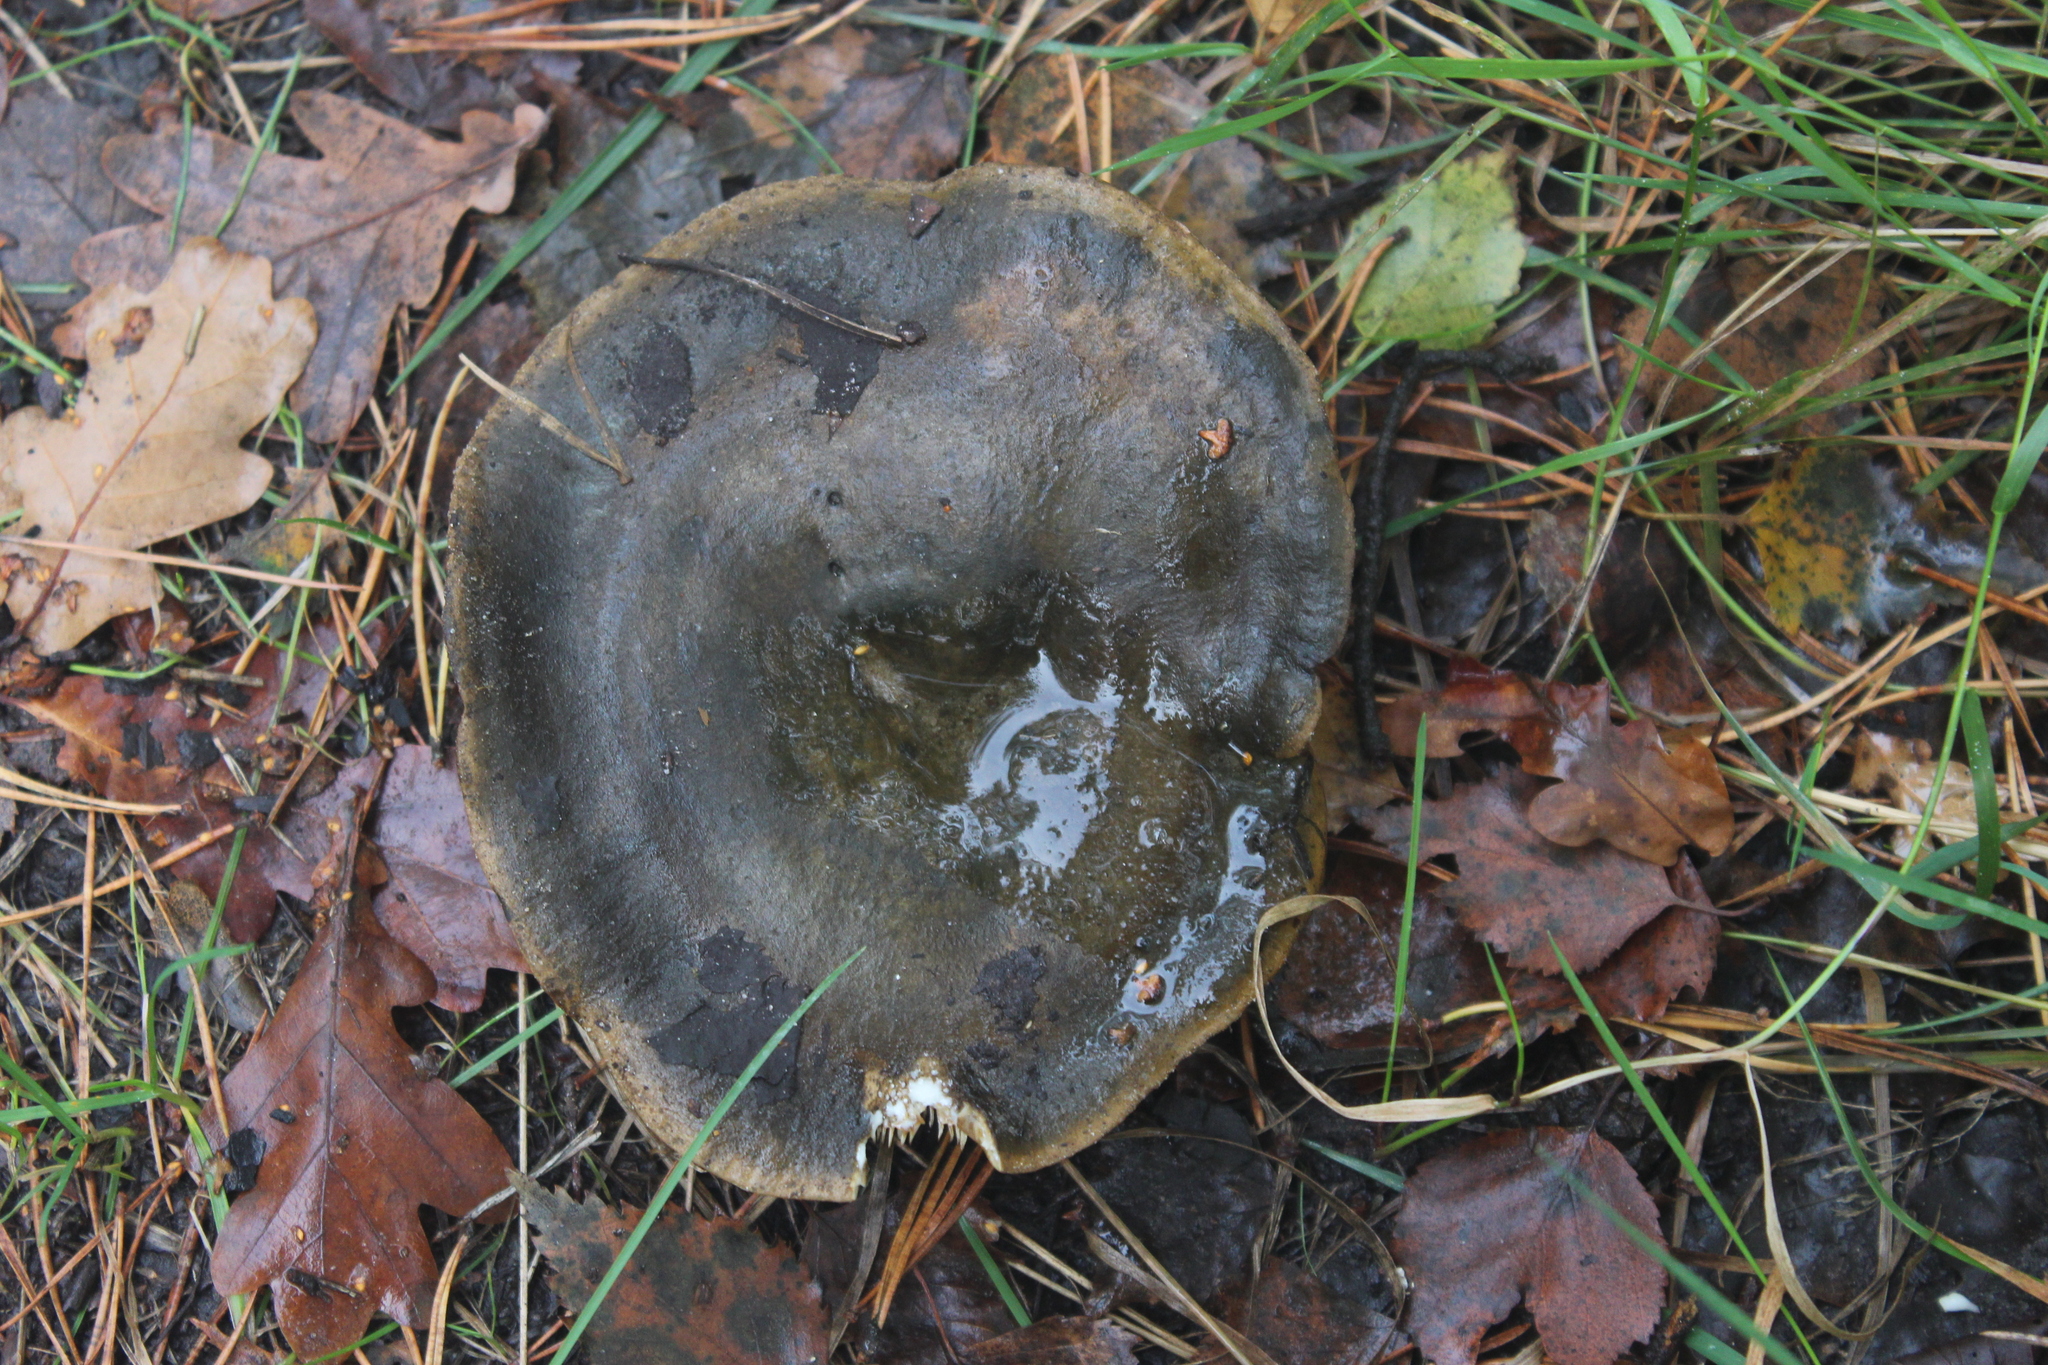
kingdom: Fungi
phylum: Basidiomycota
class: Agaricomycetes
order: Russulales
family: Russulaceae
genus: Lactarius
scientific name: Lactarius turpis
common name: Ugly milk-cap
